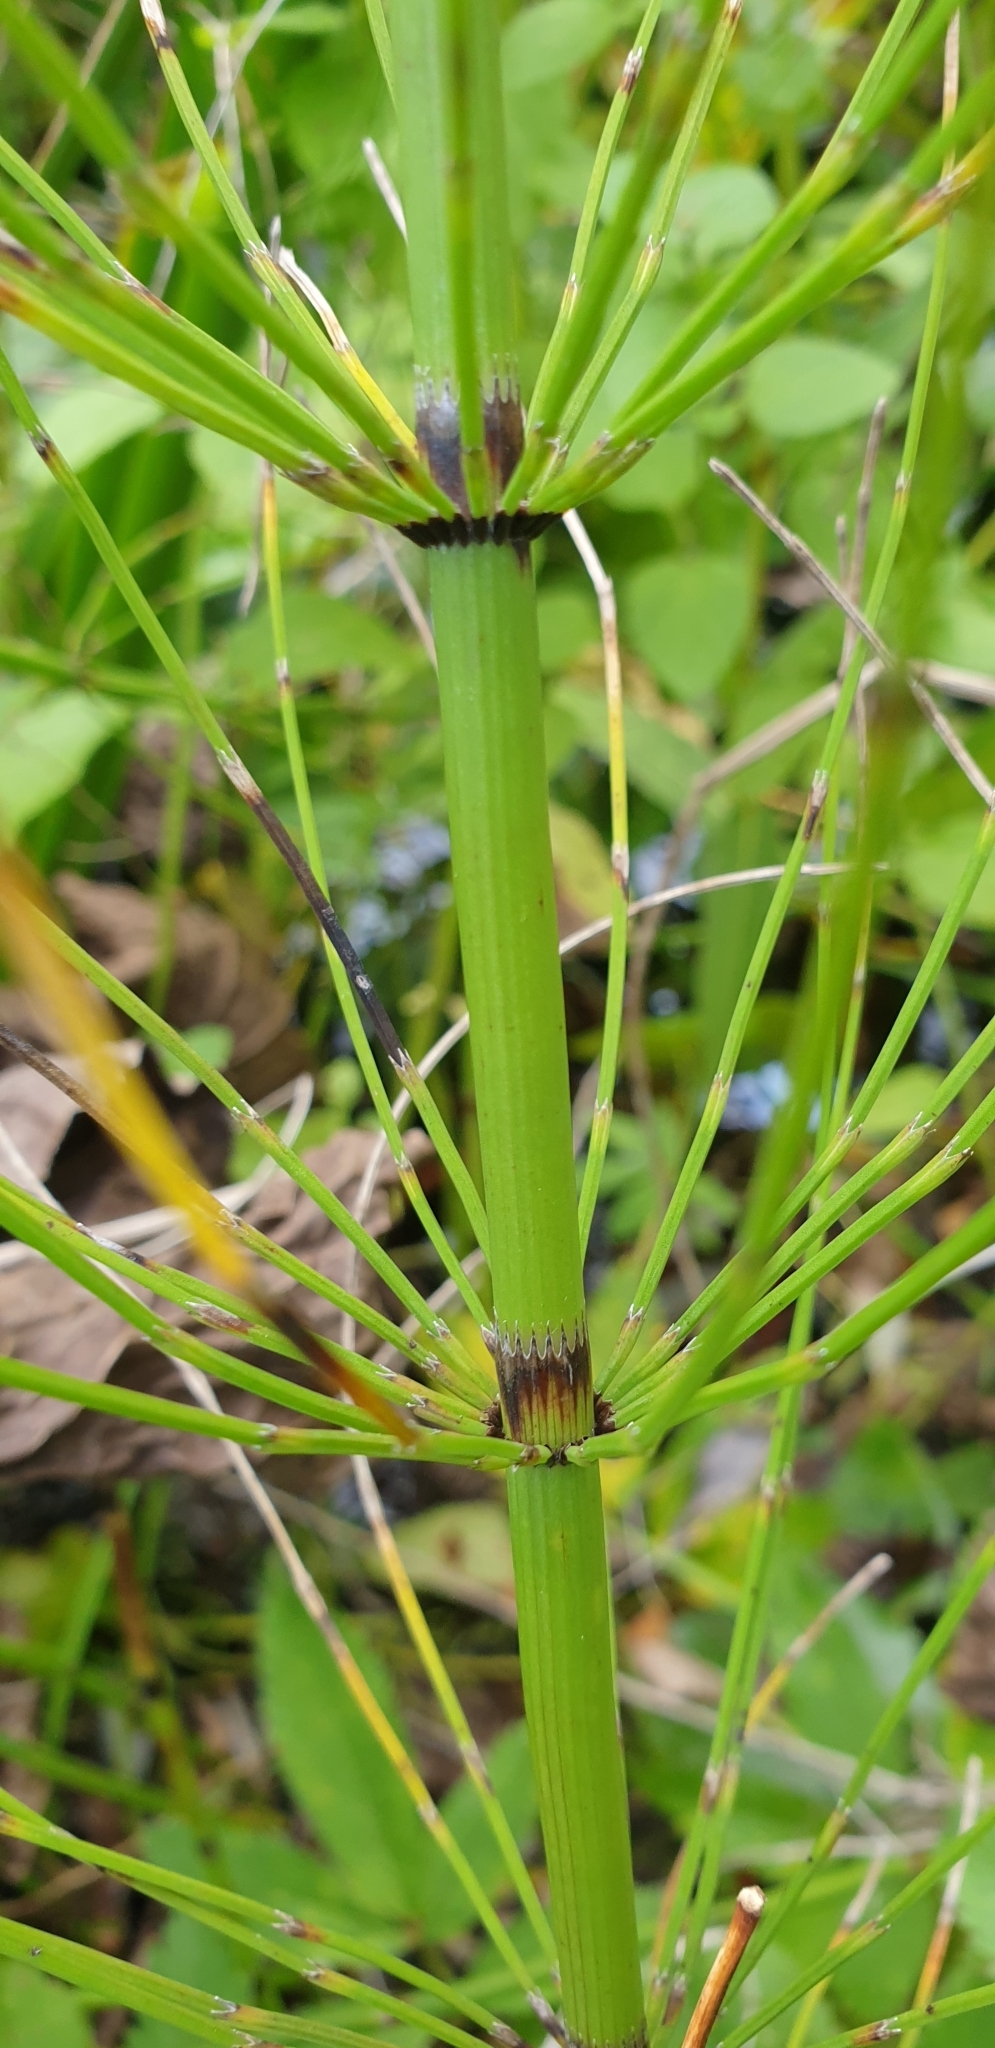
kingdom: Plantae
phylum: Tracheophyta
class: Polypodiopsida
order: Equisetales
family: Equisetaceae
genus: Equisetum
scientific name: Equisetum fluviatile
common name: Water horsetail
